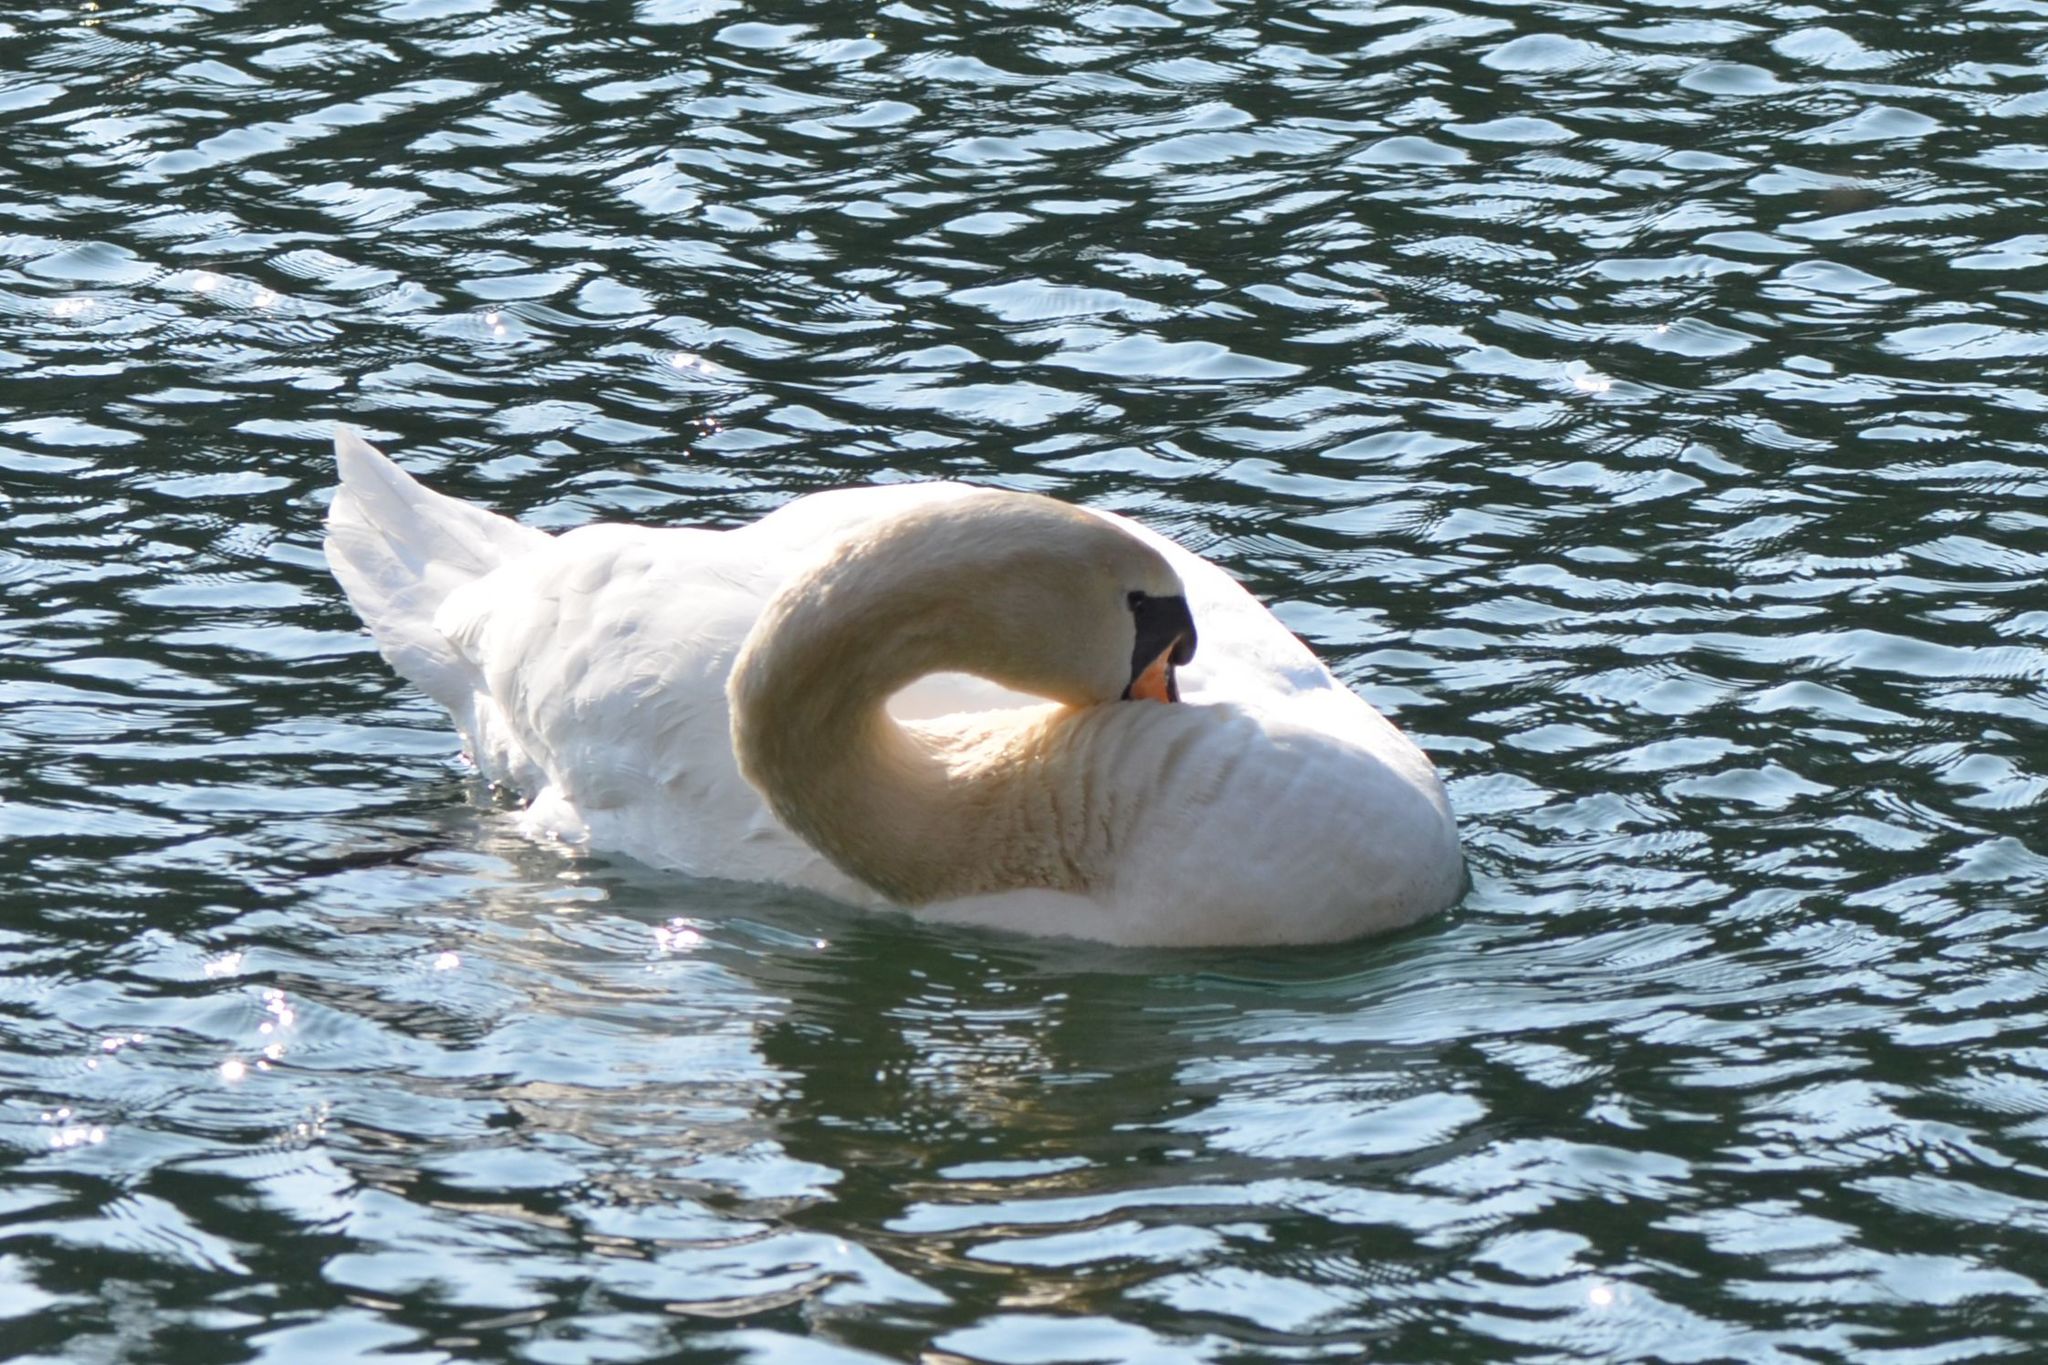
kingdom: Animalia
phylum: Chordata
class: Aves
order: Anseriformes
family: Anatidae
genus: Cygnus
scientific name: Cygnus olor
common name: Mute swan
